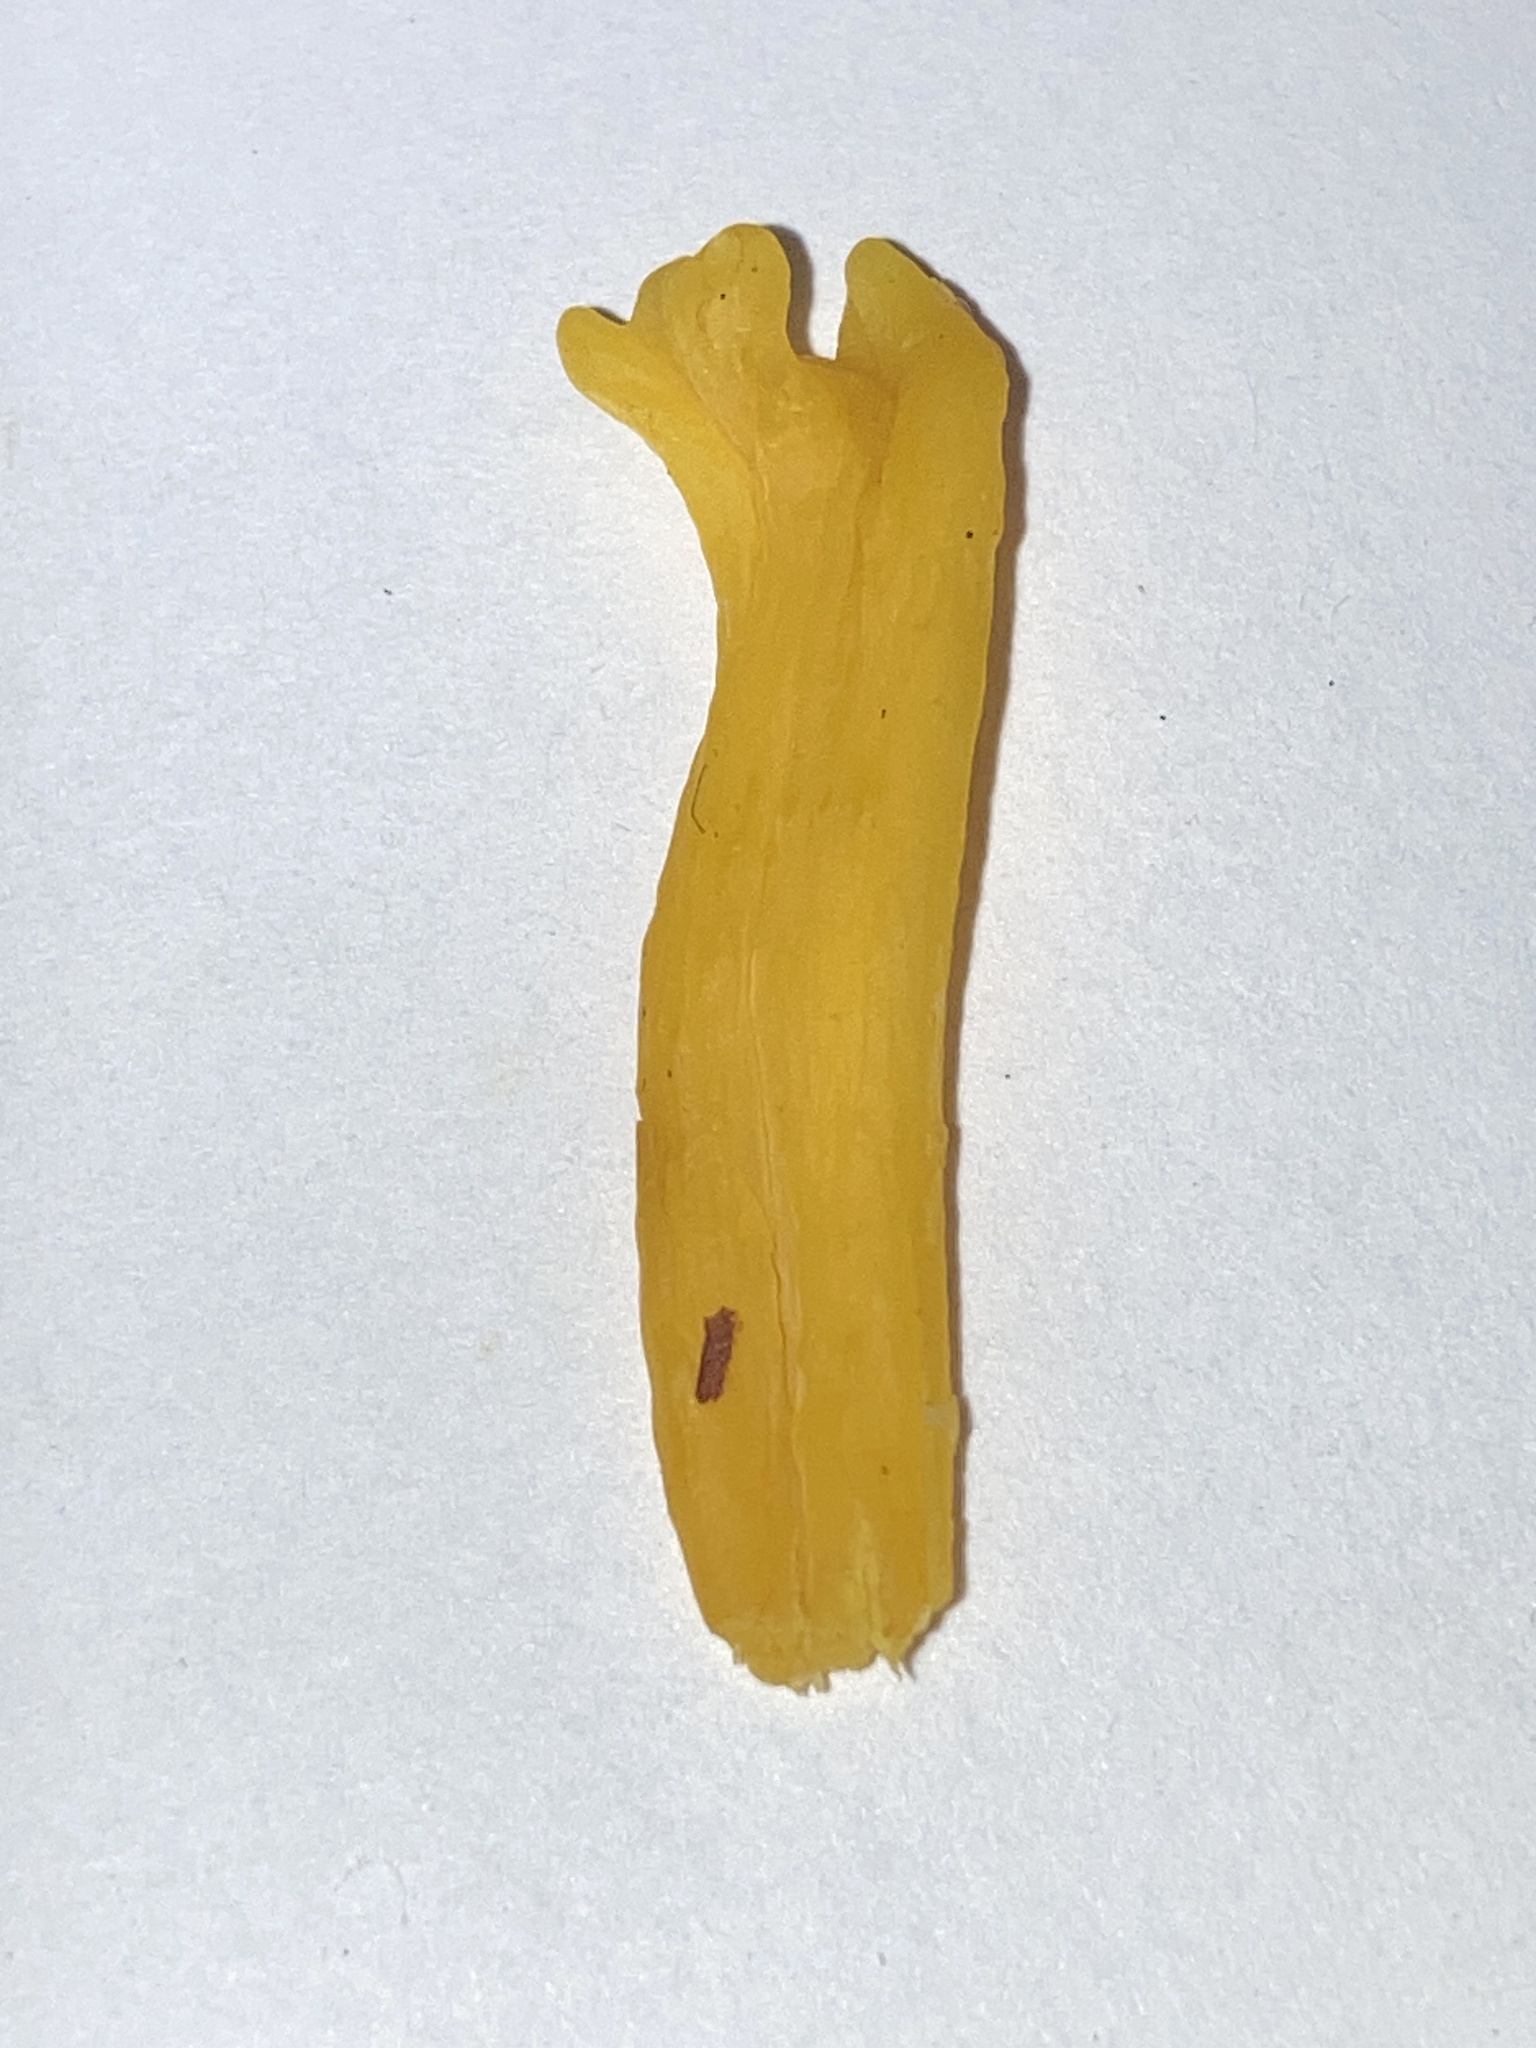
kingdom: Fungi
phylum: Basidiomycota
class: Agaricomycetes
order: Agaricales
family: Clavariaceae
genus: Clavulinopsis
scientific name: Clavulinopsis helvola
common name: Yellow club
